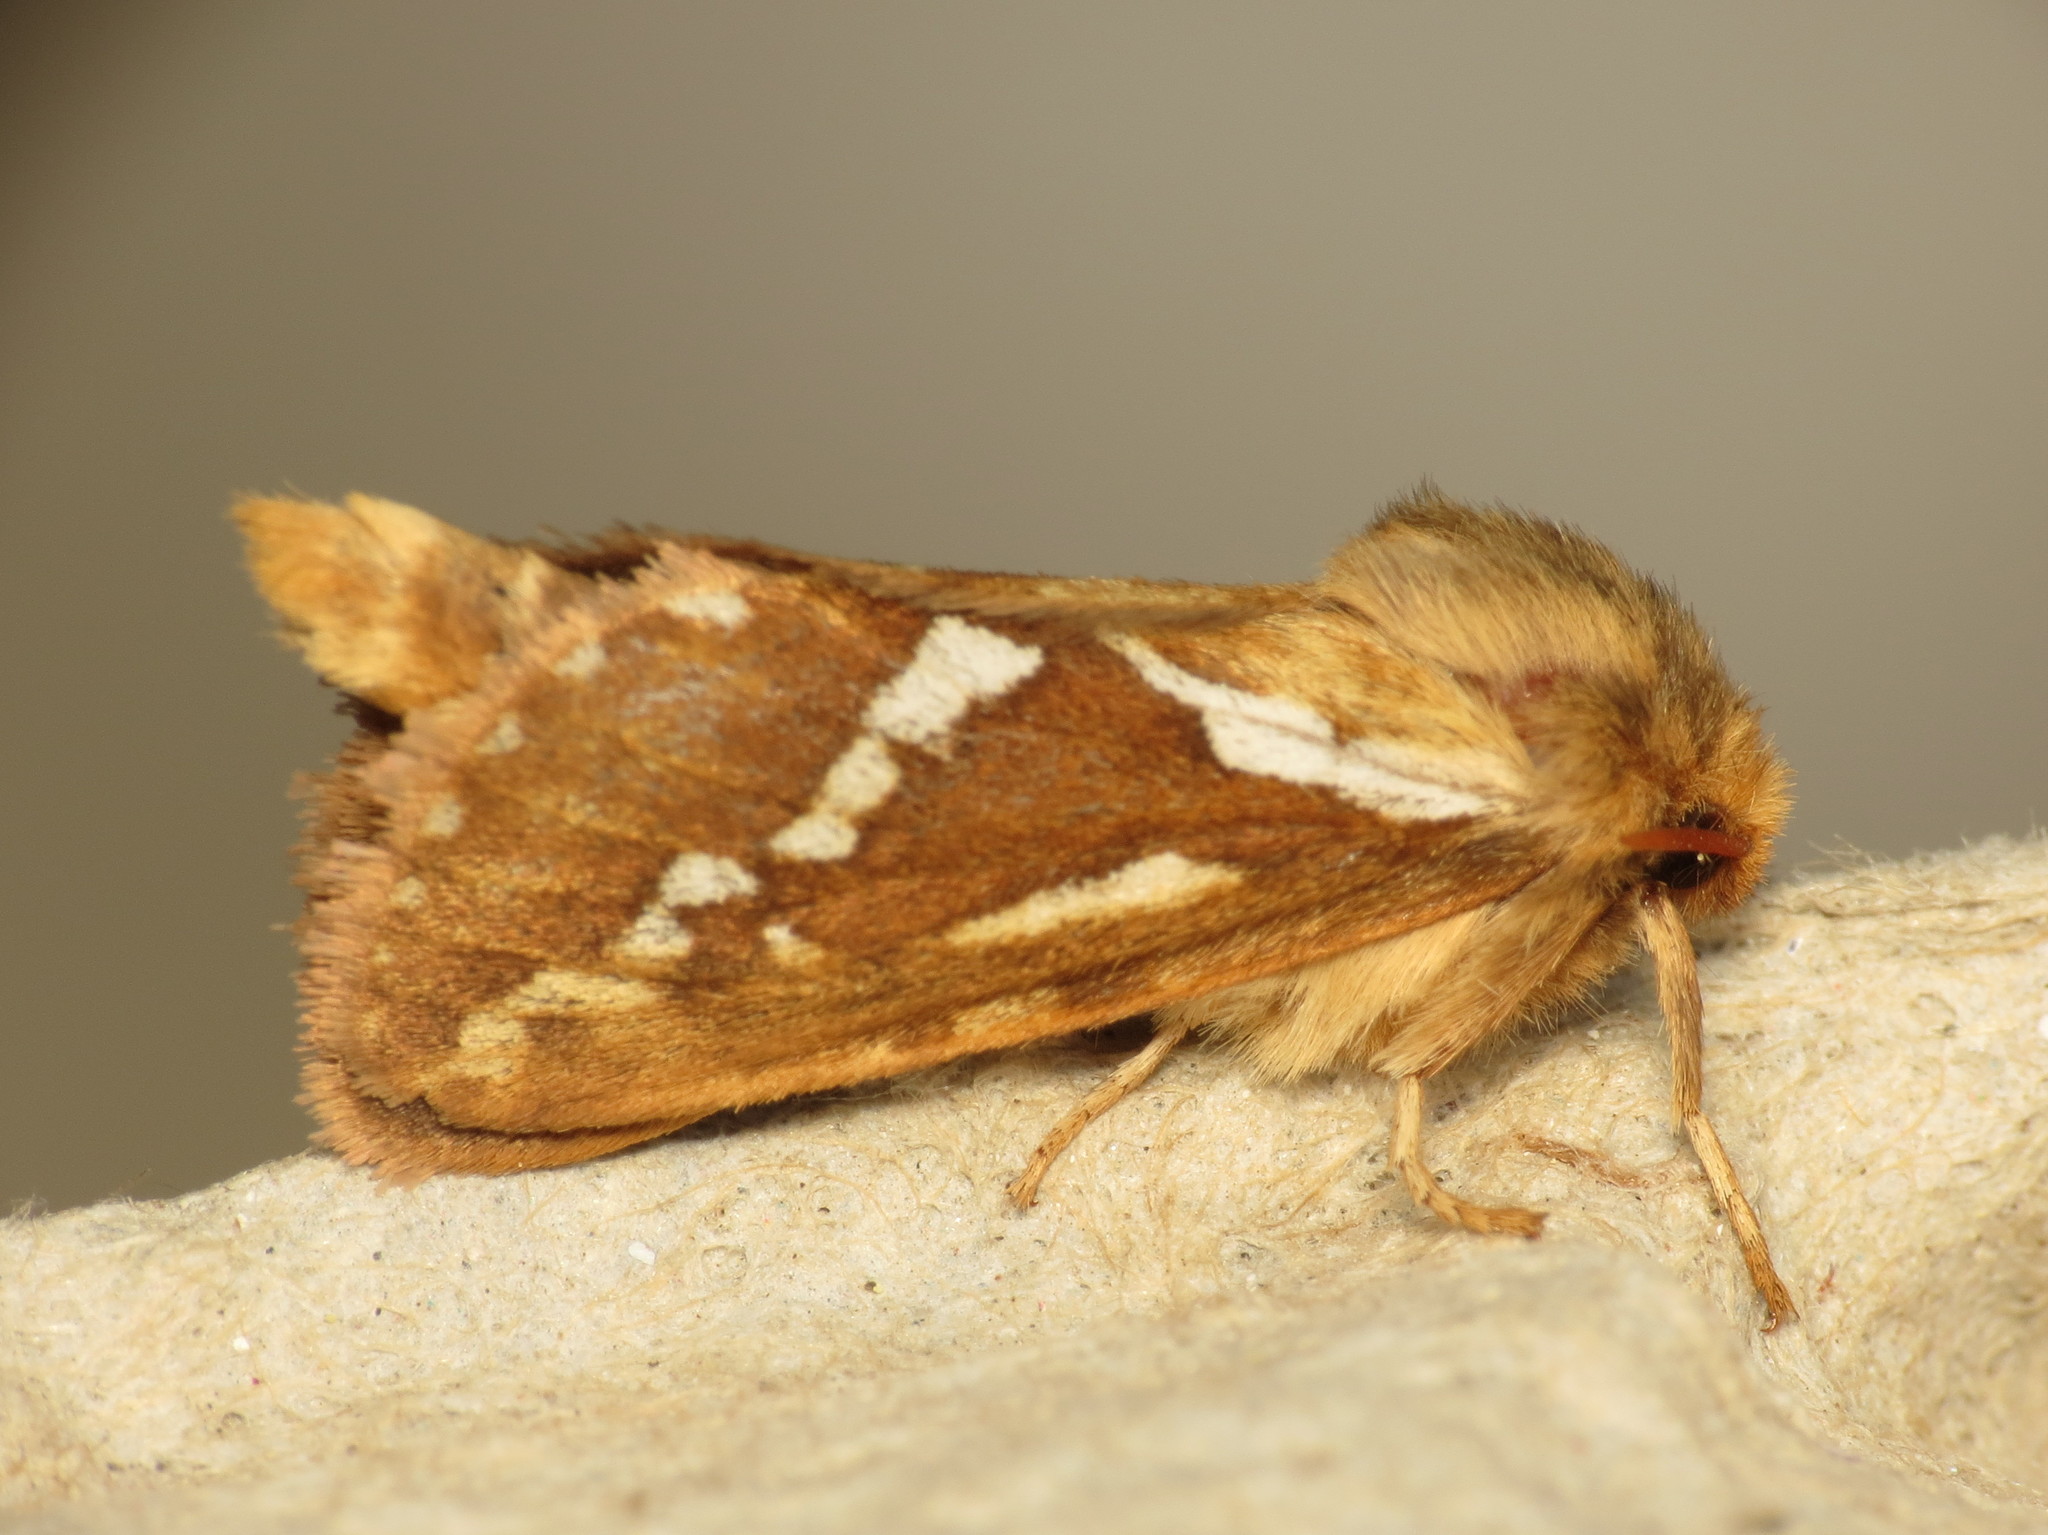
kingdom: Animalia
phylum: Arthropoda
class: Insecta
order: Lepidoptera
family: Hepialidae
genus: Korscheltellus
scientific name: Korscheltellus lupulina
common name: Common swift
